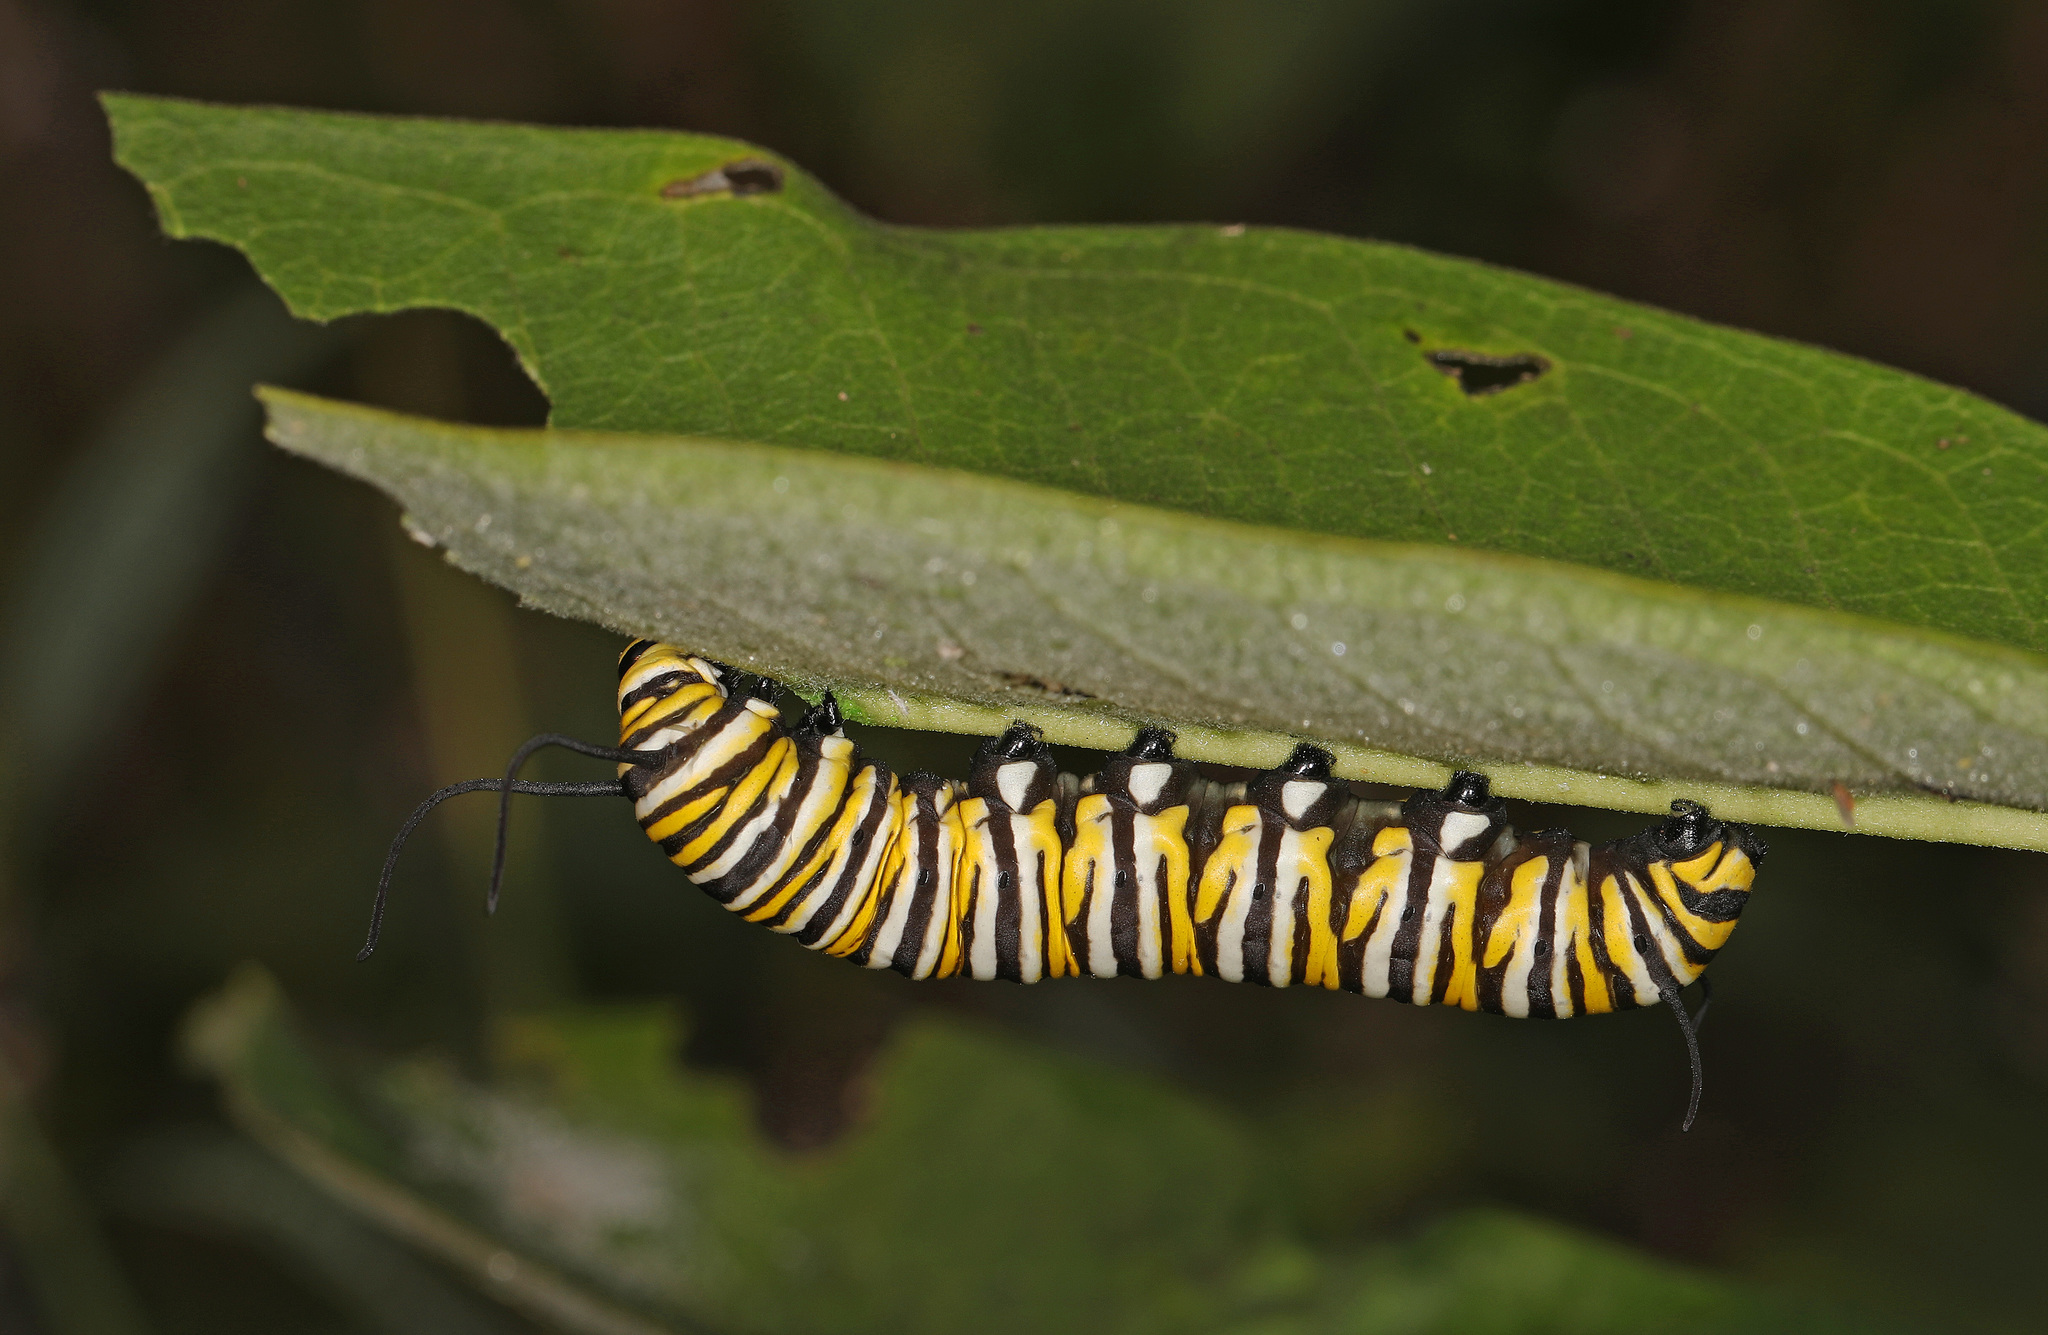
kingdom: Animalia
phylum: Arthropoda
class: Insecta
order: Lepidoptera
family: Nymphalidae
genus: Danaus
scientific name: Danaus plexippus
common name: Monarch
